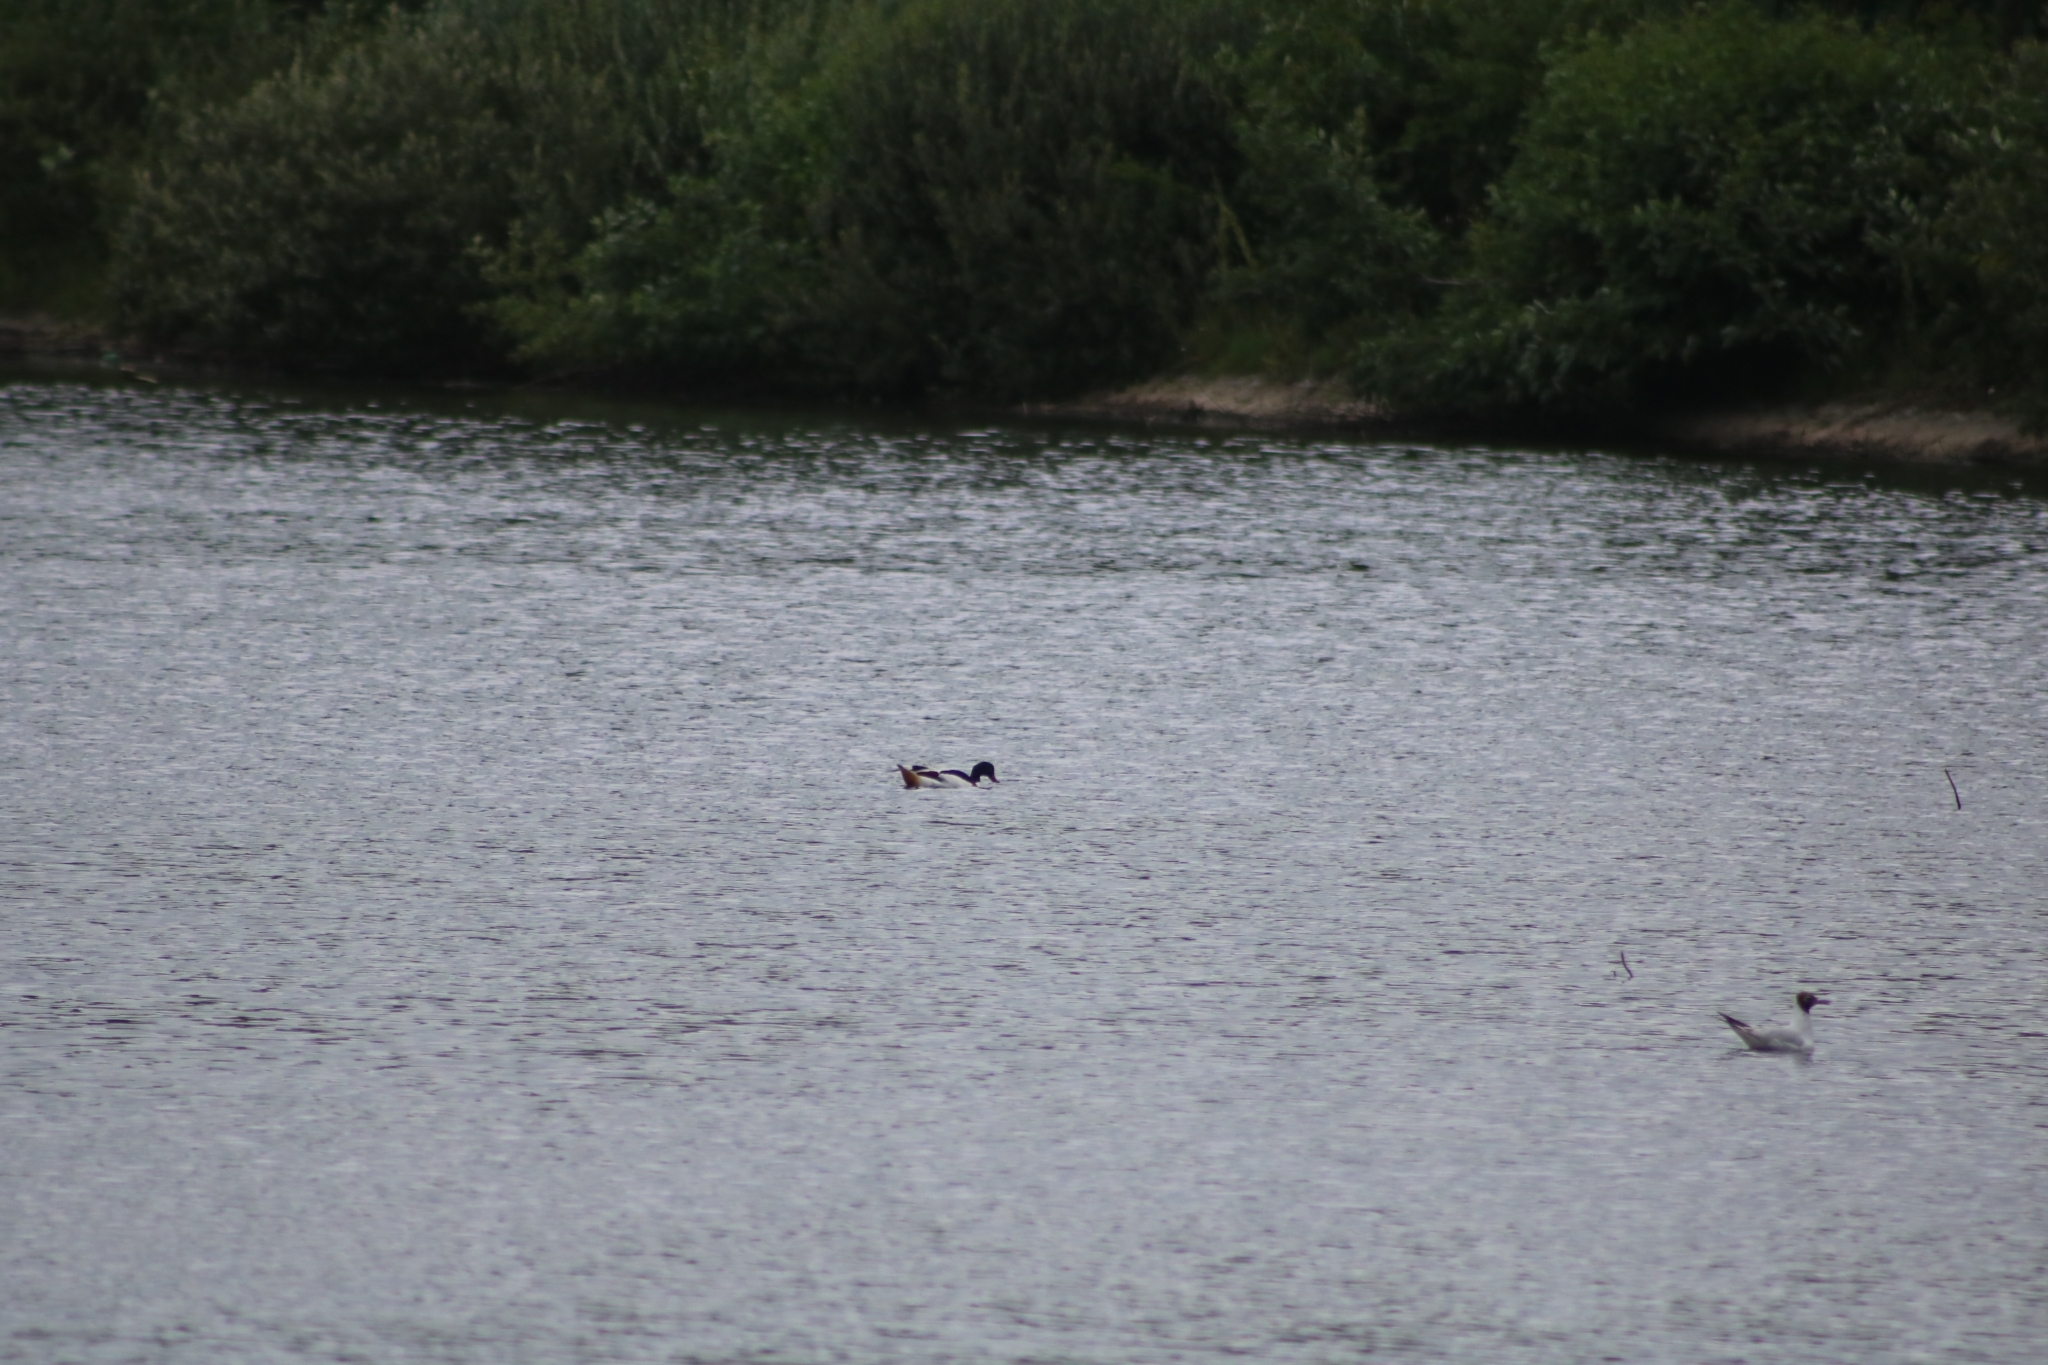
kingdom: Animalia
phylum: Chordata
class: Aves
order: Anseriformes
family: Anatidae
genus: Tadorna
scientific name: Tadorna tadorna
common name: Common shelduck
